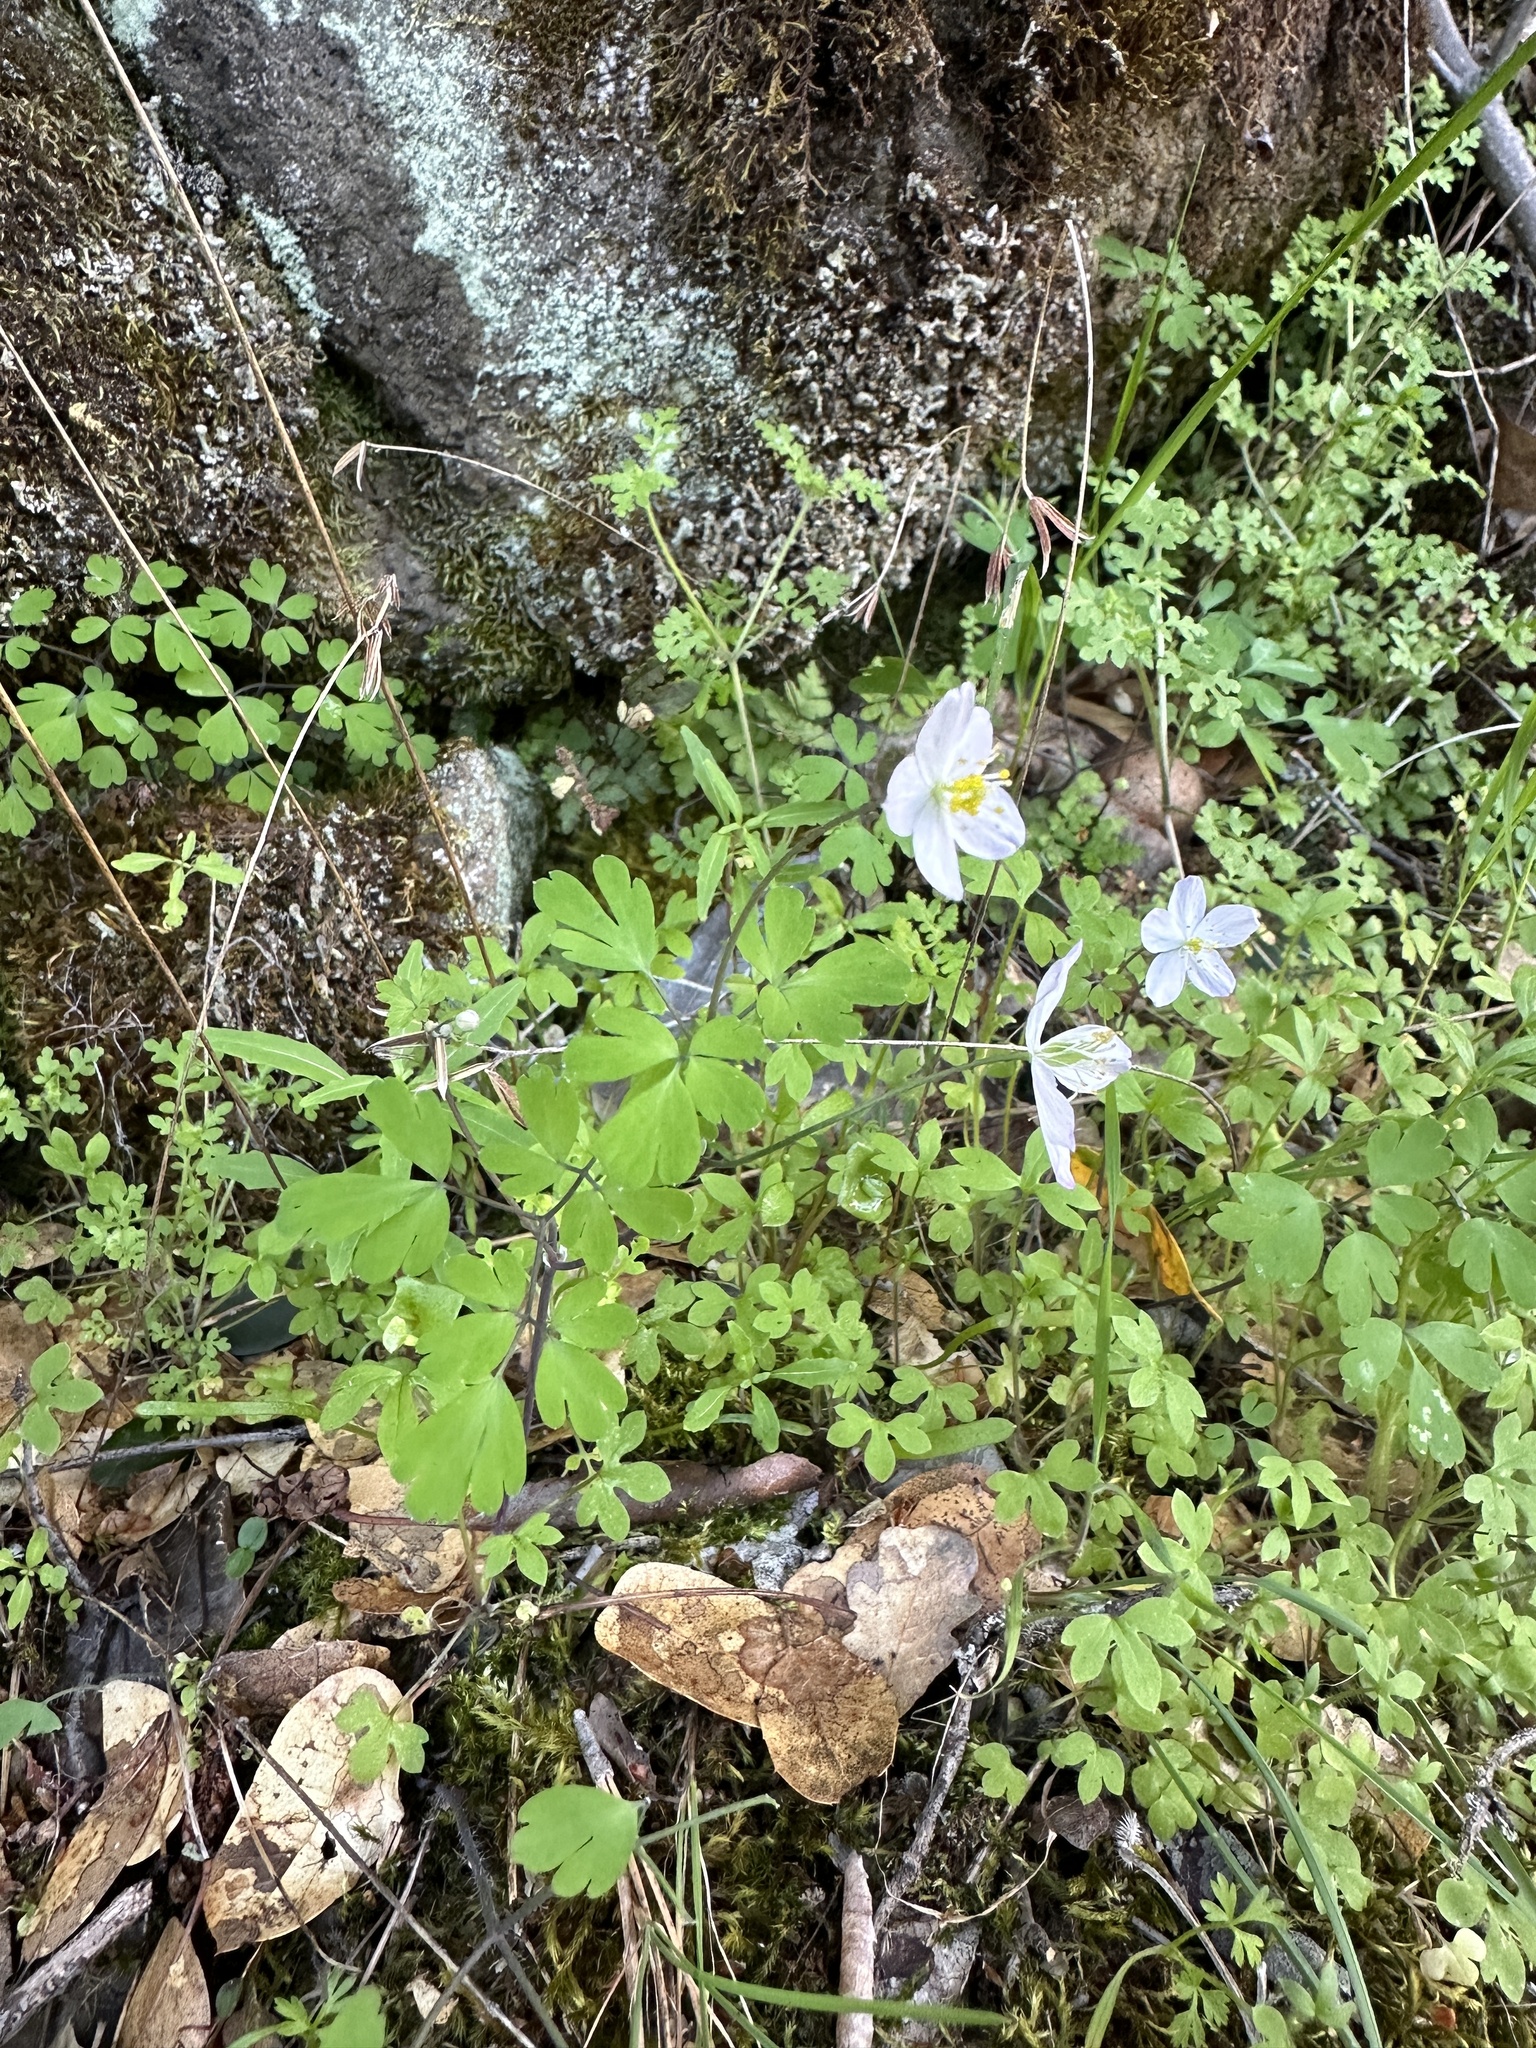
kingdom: Plantae
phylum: Tracheophyta
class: Magnoliopsida
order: Ranunculales
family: Ranunculaceae
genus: Enemion
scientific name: Enemion occidentale
